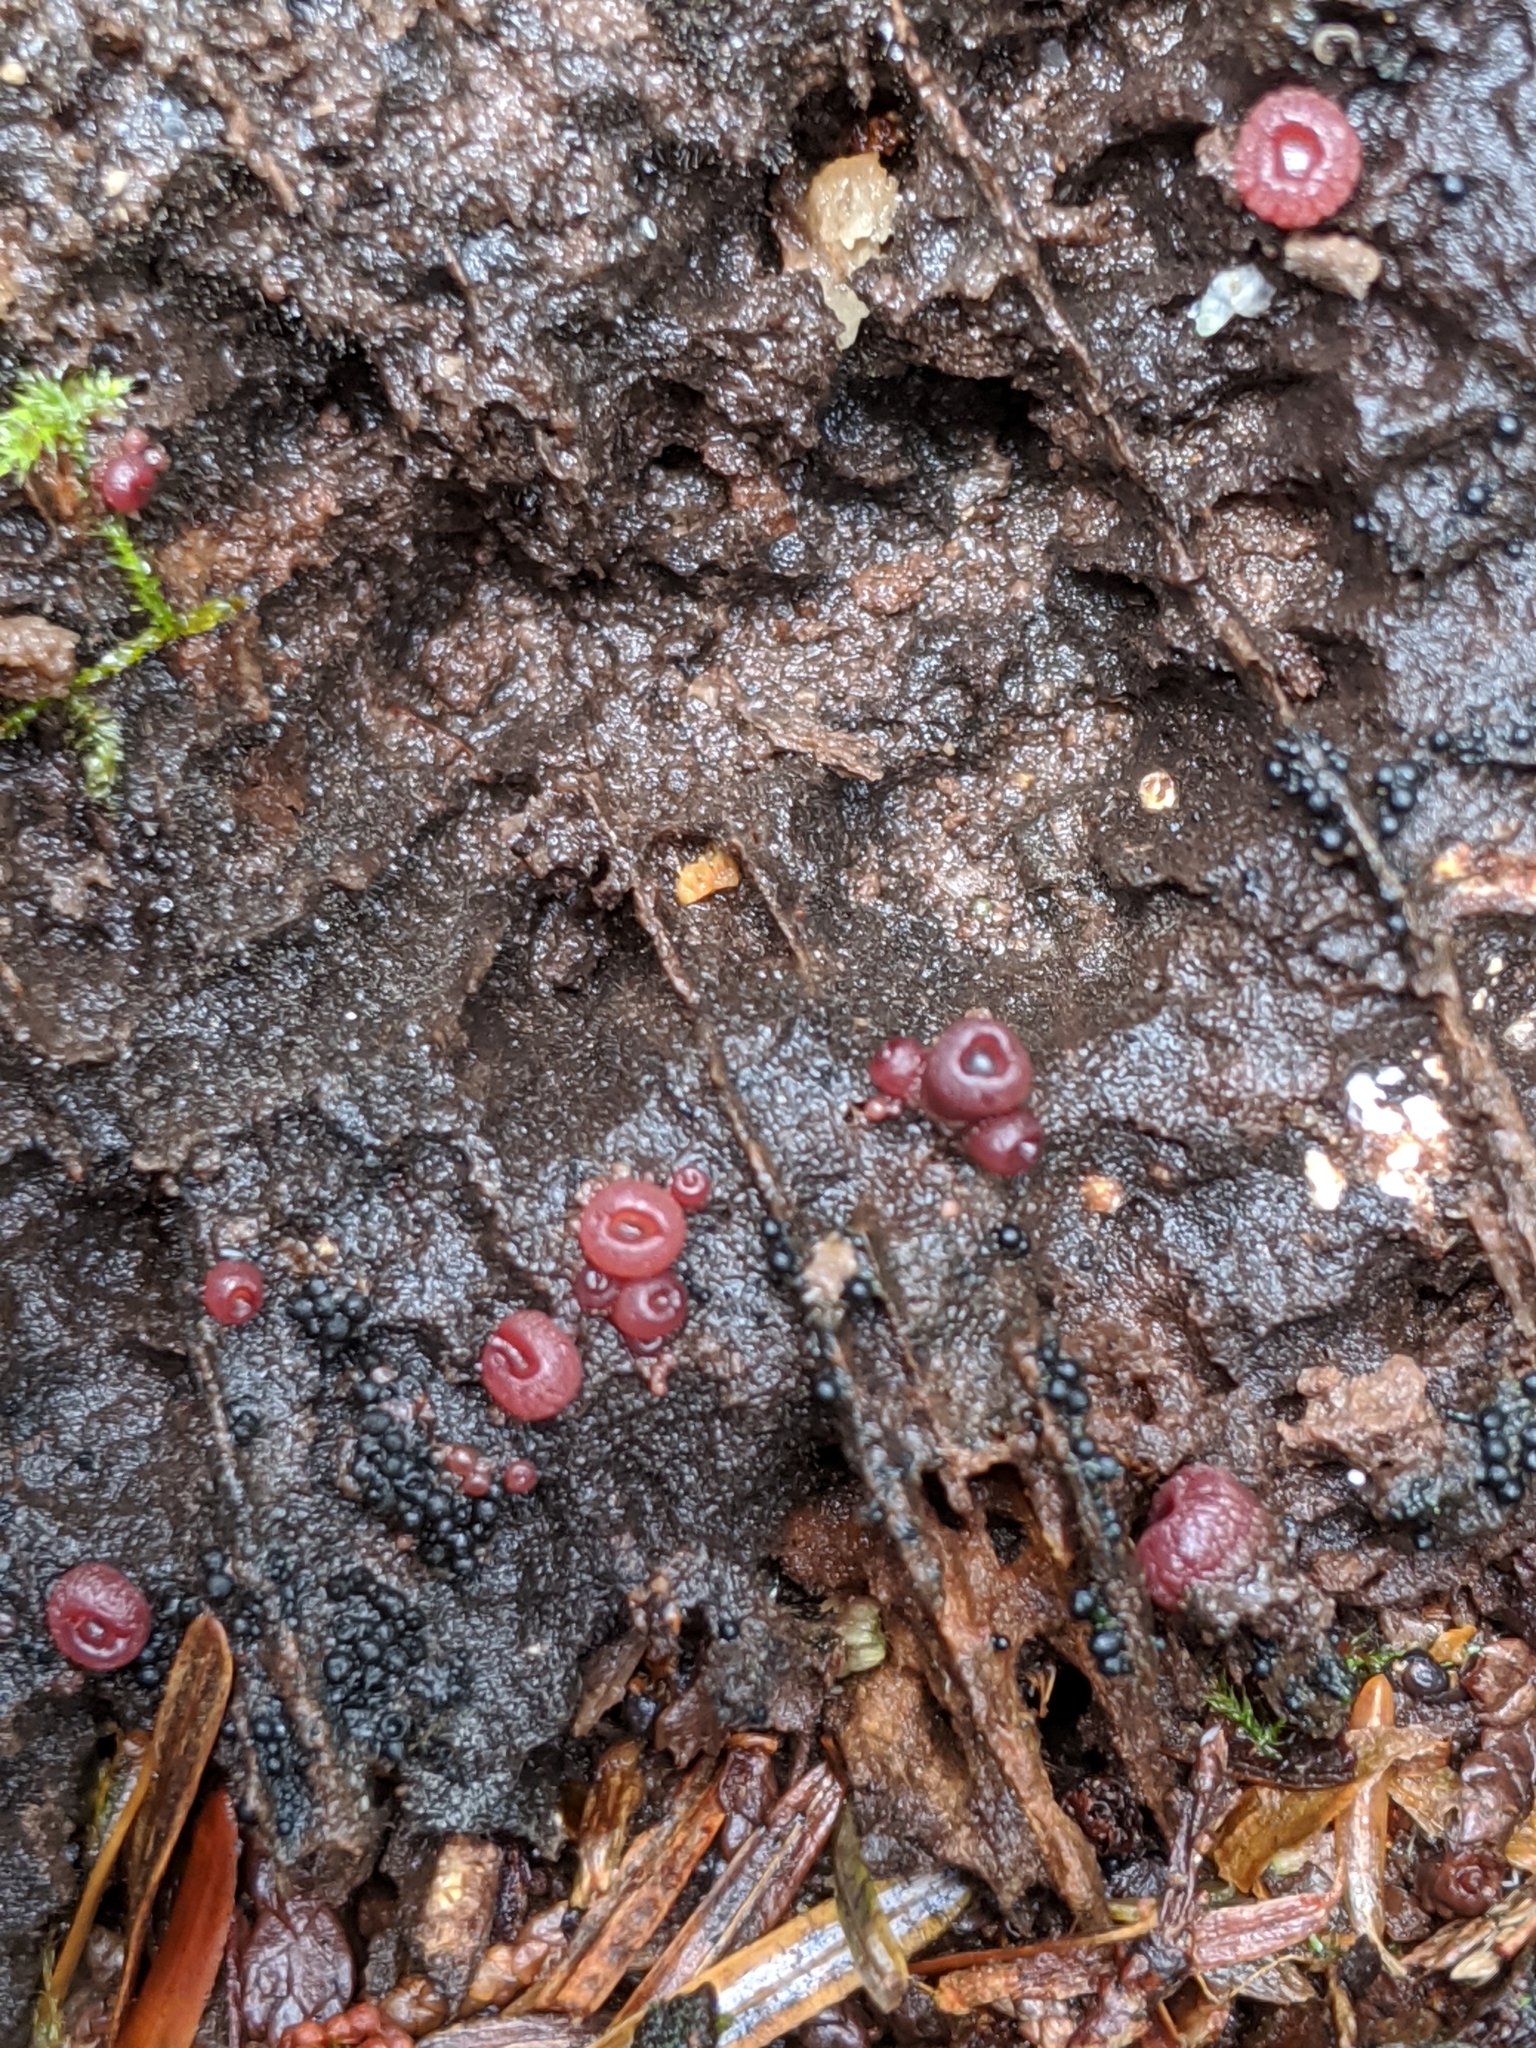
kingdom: Fungi
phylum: Ascomycota
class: Leotiomycetes
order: Helotiales
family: Gelatinodiscaceae
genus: Ascocoryne
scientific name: Ascocoryne sarcoides
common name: Purple jellydisc
